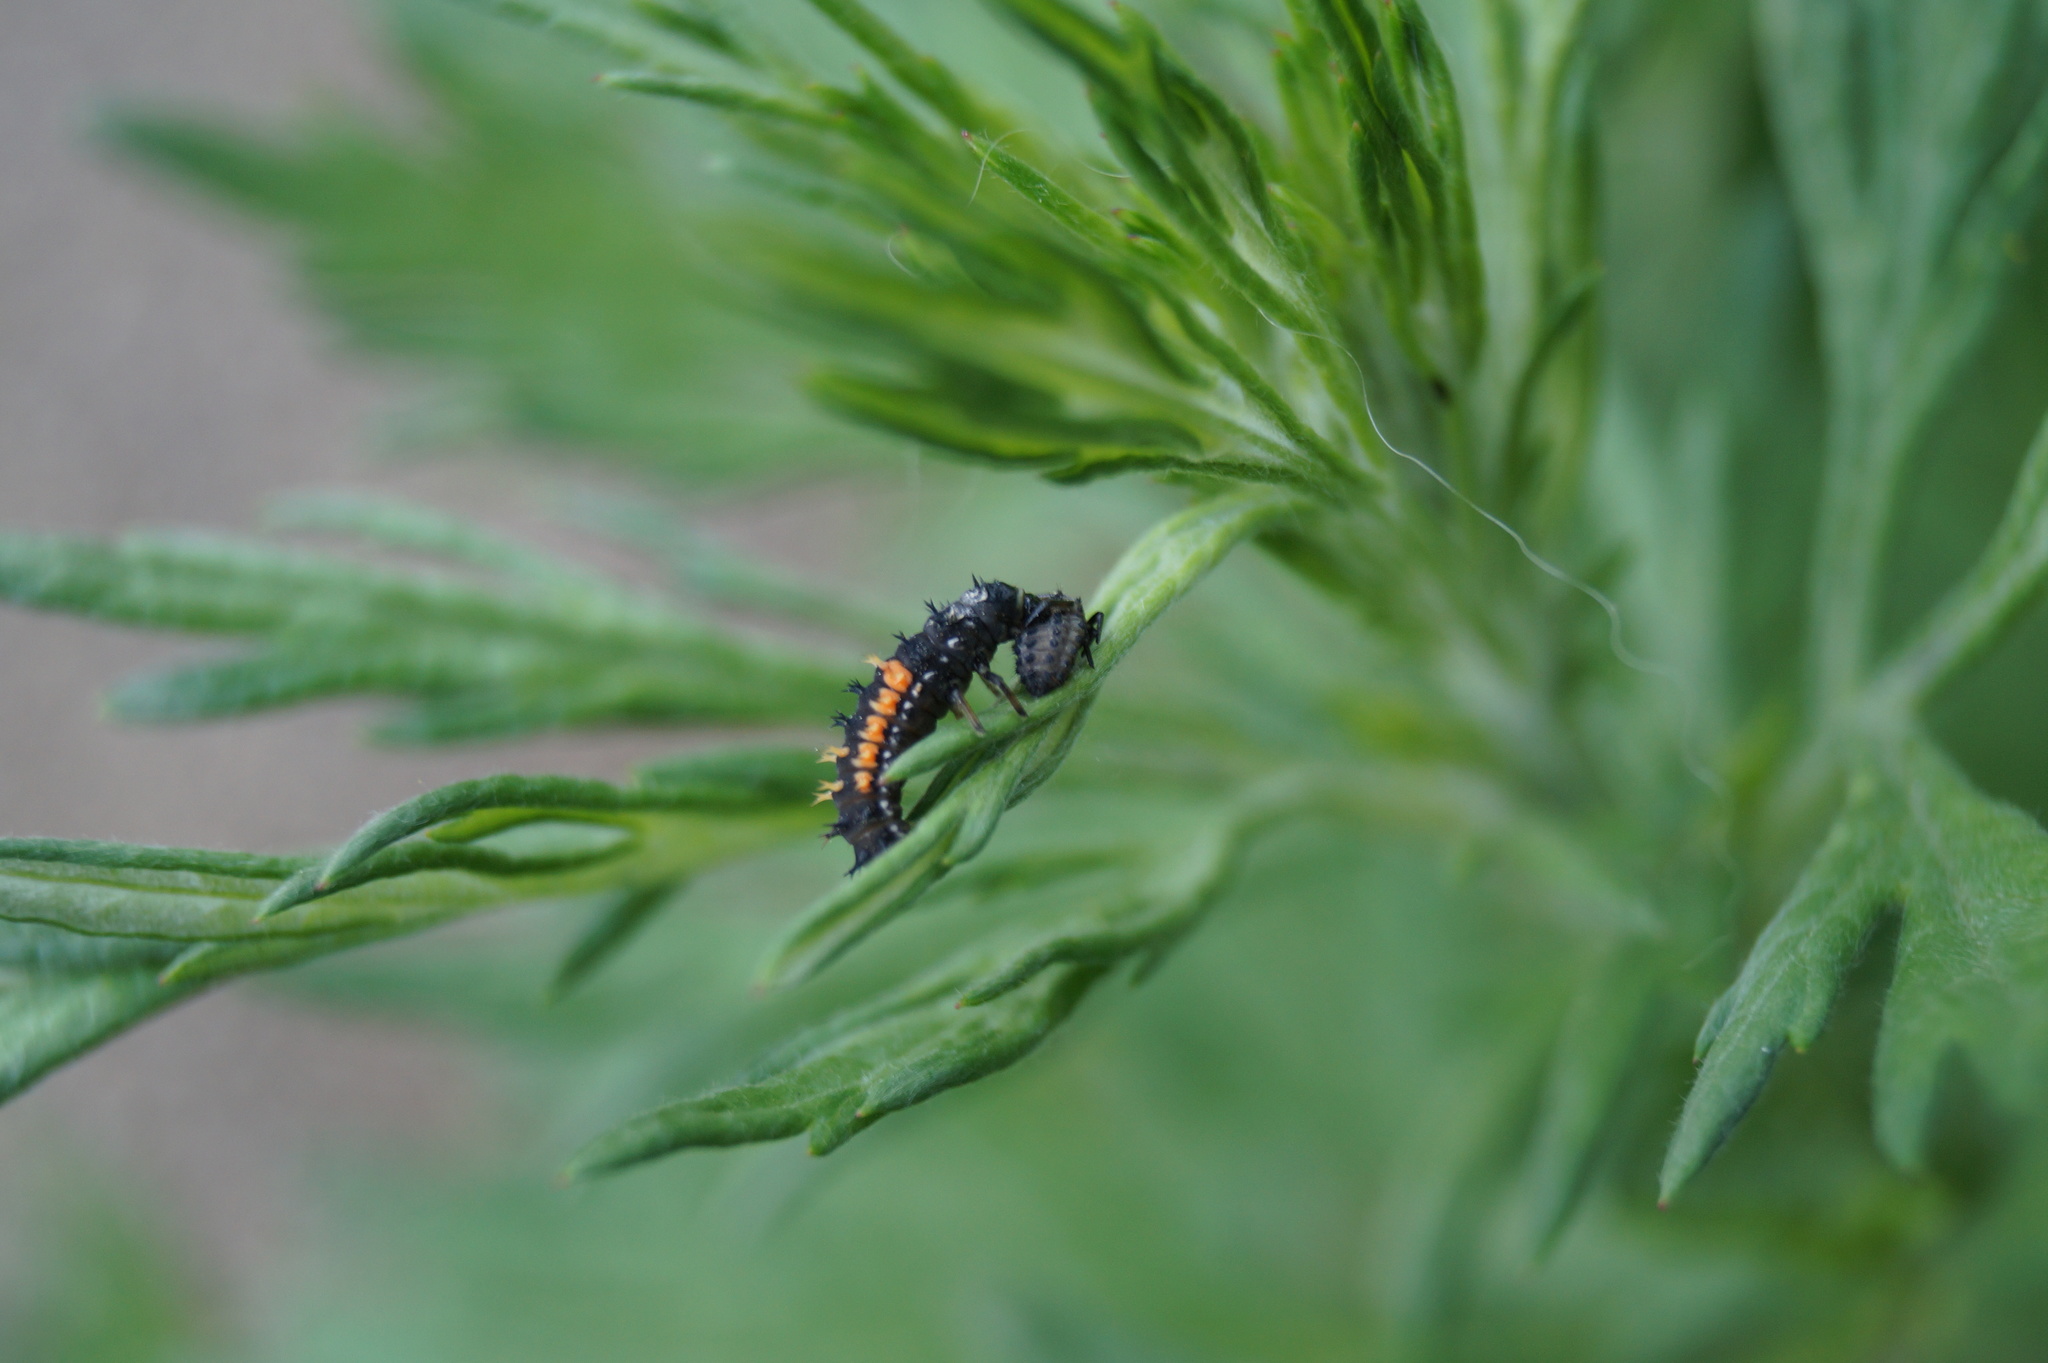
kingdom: Animalia
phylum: Arthropoda
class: Insecta
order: Coleoptera
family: Coccinellidae
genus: Harmonia
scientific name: Harmonia axyridis
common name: Harlequin ladybird
